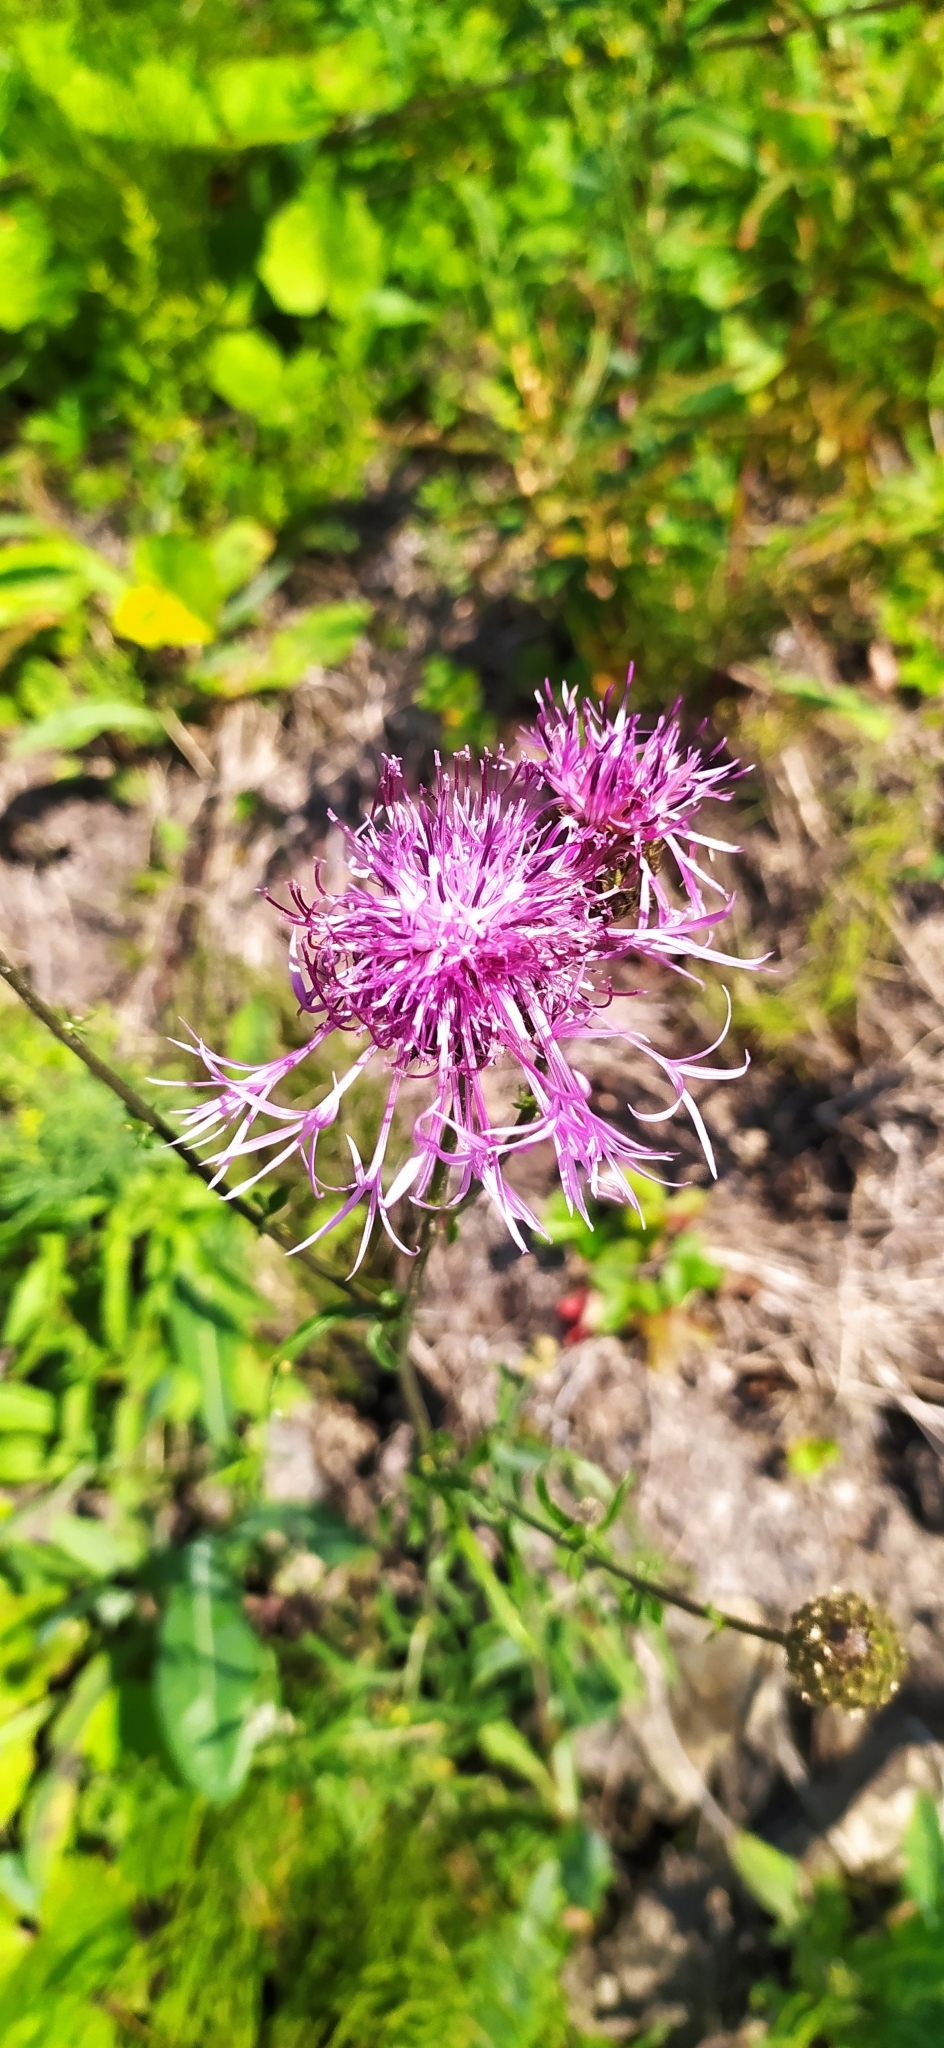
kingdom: Plantae
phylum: Tracheophyta
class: Magnoliopsida
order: Asterales
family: Asteraceae
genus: Centaurea
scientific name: Centaurea scabiosa
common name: Greater knapweed
